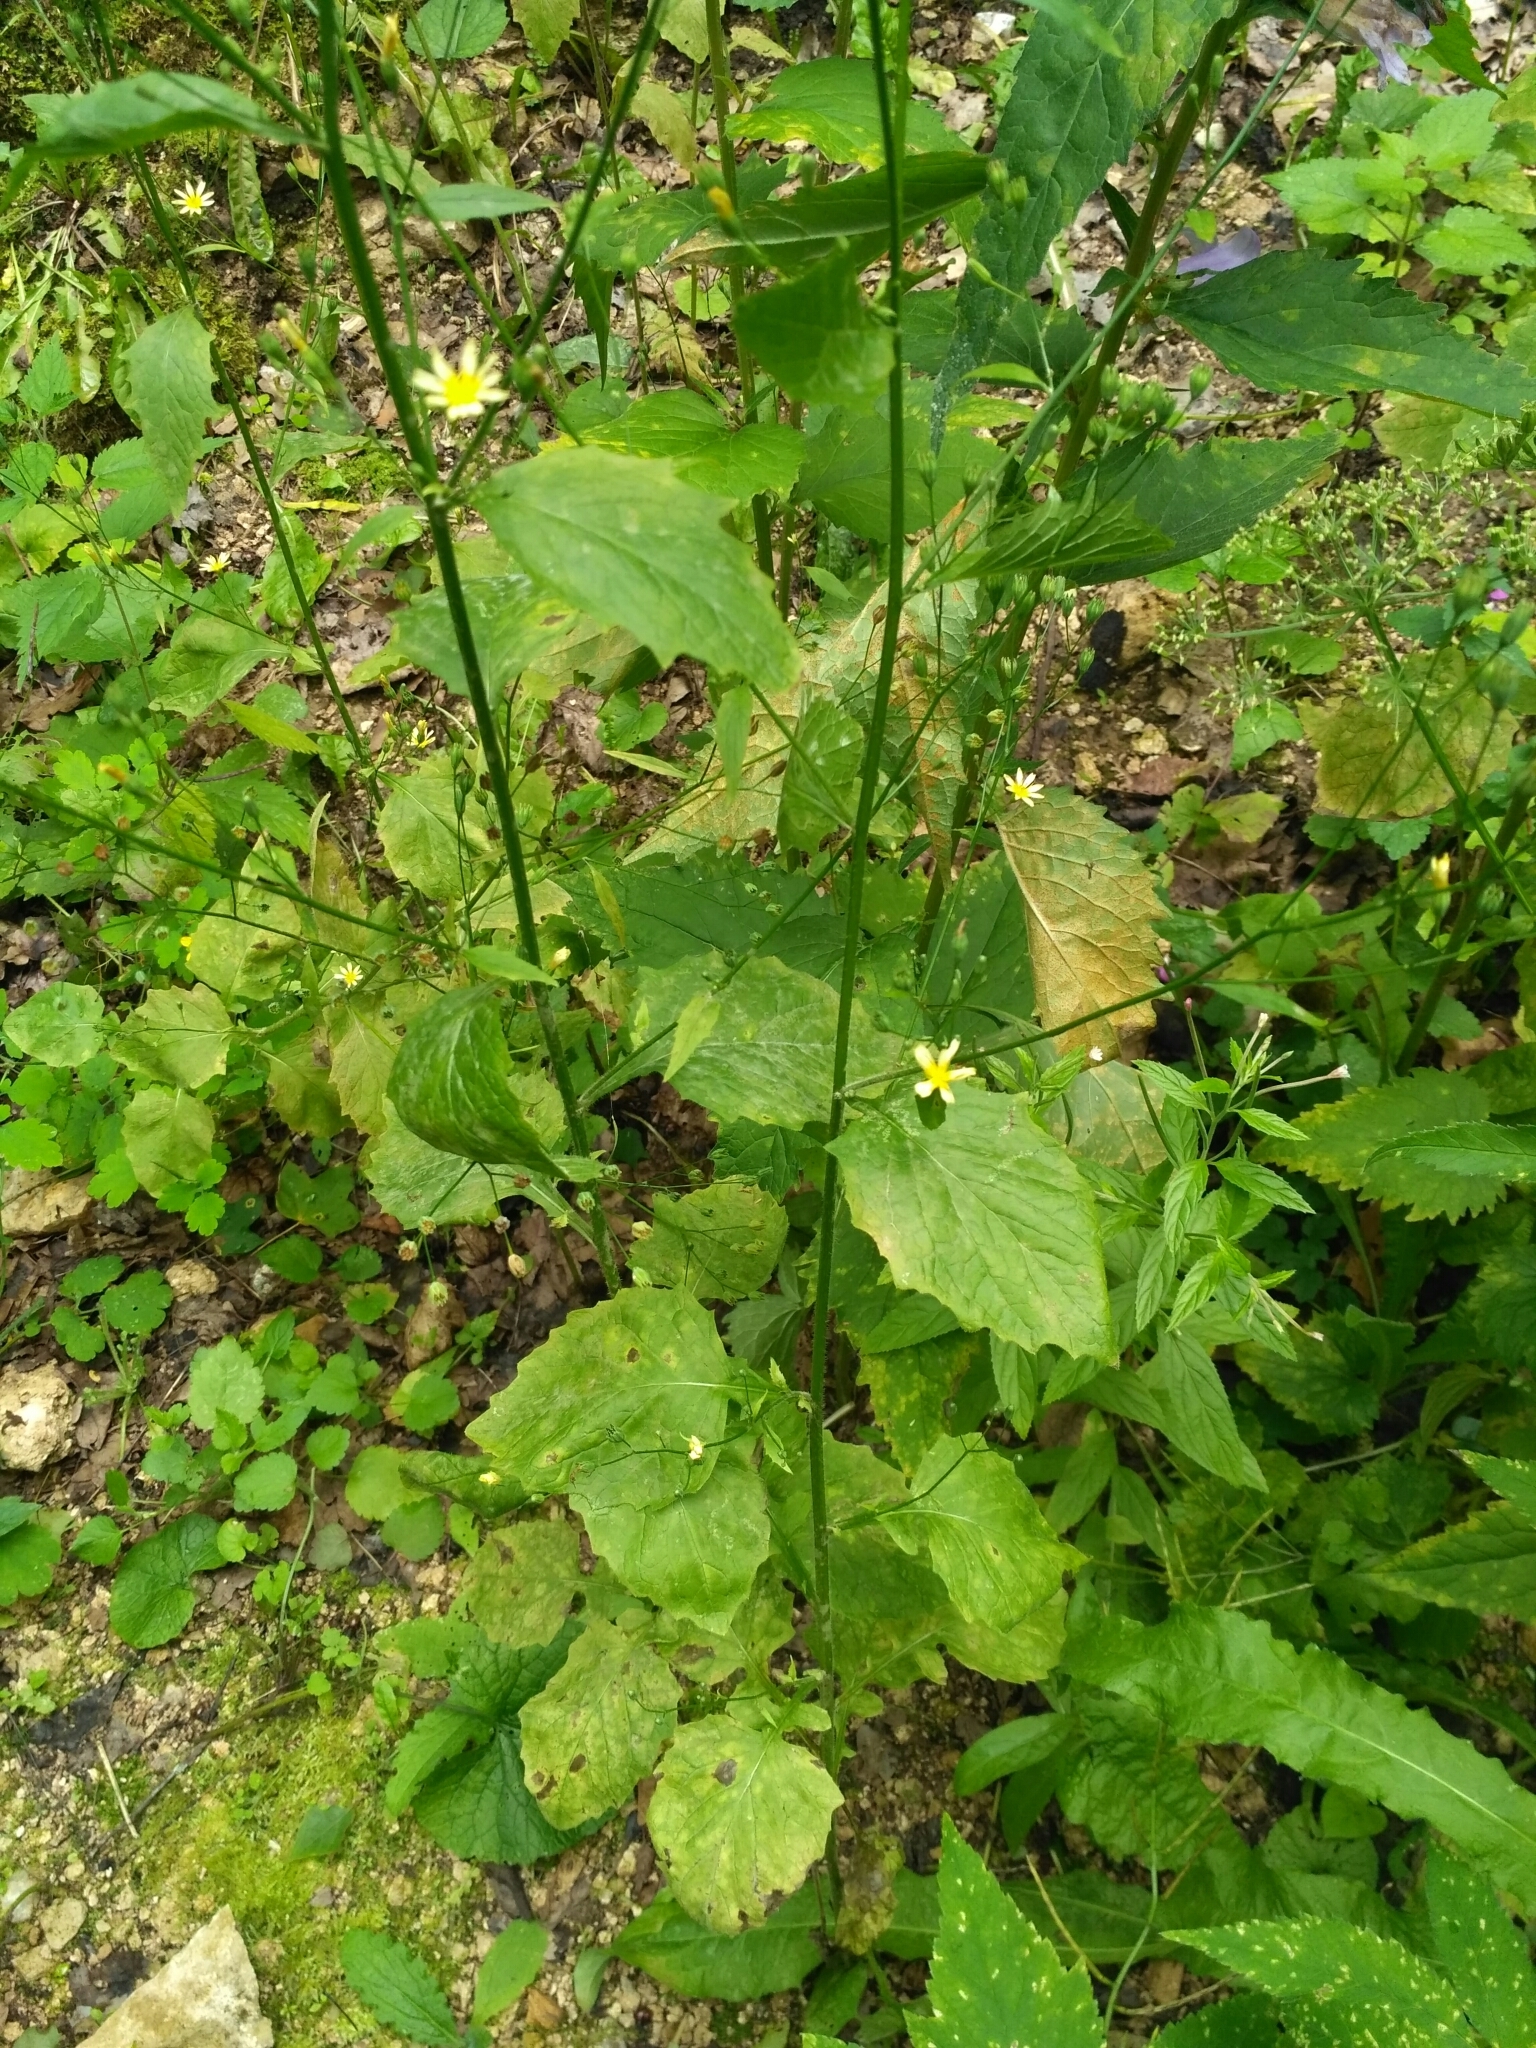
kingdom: Plantae
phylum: Tracheophyta
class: Magnoliopsida
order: Asterales
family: Asteraceae
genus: Lapsana
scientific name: Lapsana communis
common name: Nipplewort
